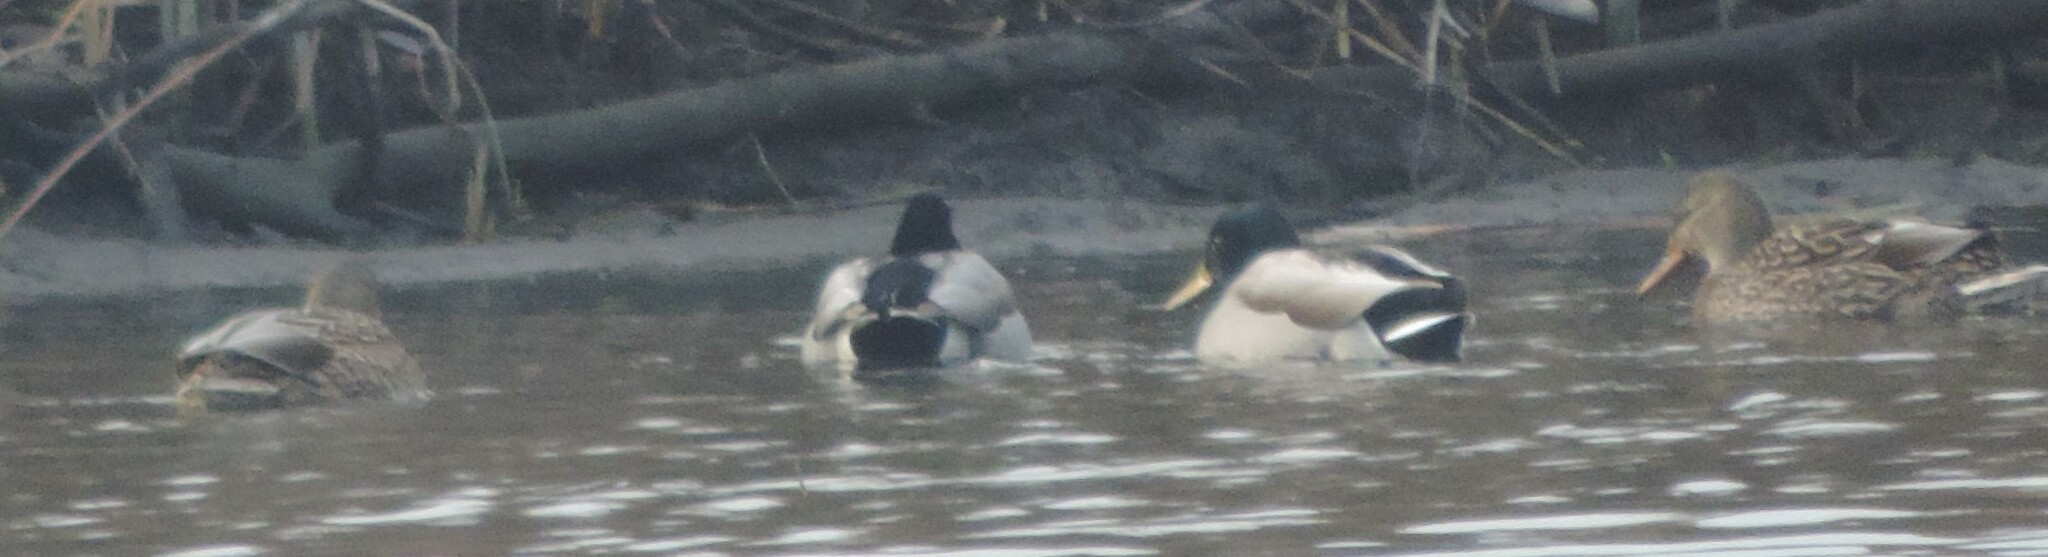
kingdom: Animalia
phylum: Chordata
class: Aves
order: Anseriformes
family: Anatidae
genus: Anas
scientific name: Anas platyrhynchos
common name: Mallard
